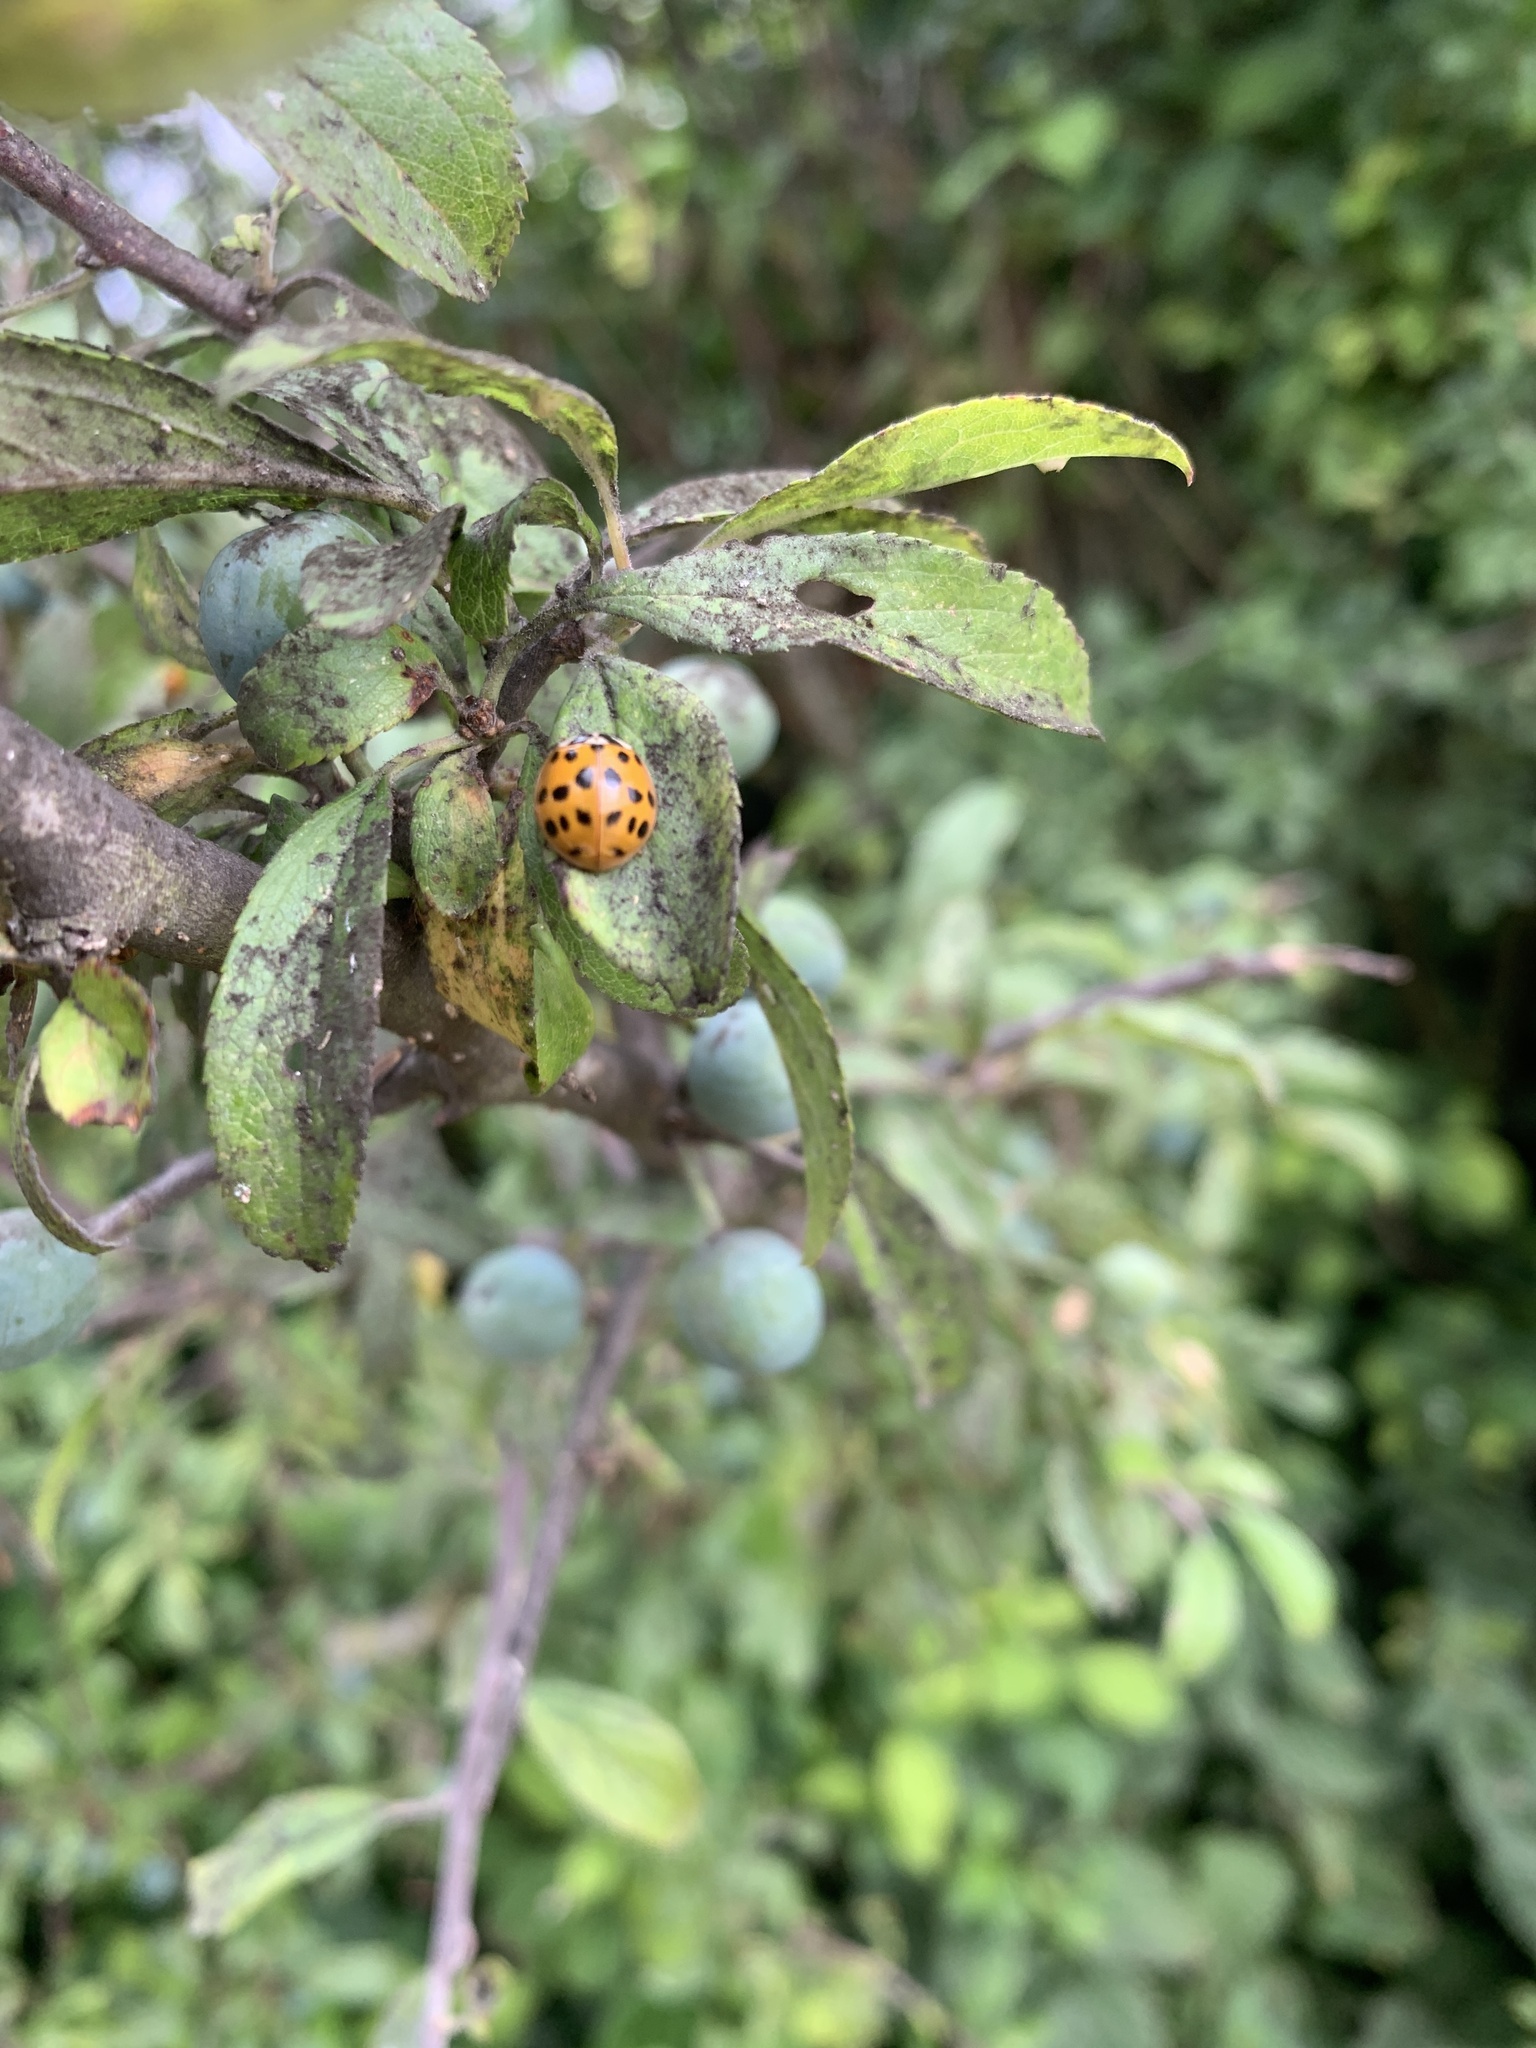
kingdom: Animalia
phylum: Arthropoda
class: Insecta
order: Coleoptera
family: Coccinellidae
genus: Harmonia
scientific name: Harmonia axyridis
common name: Harlequin ladybird
